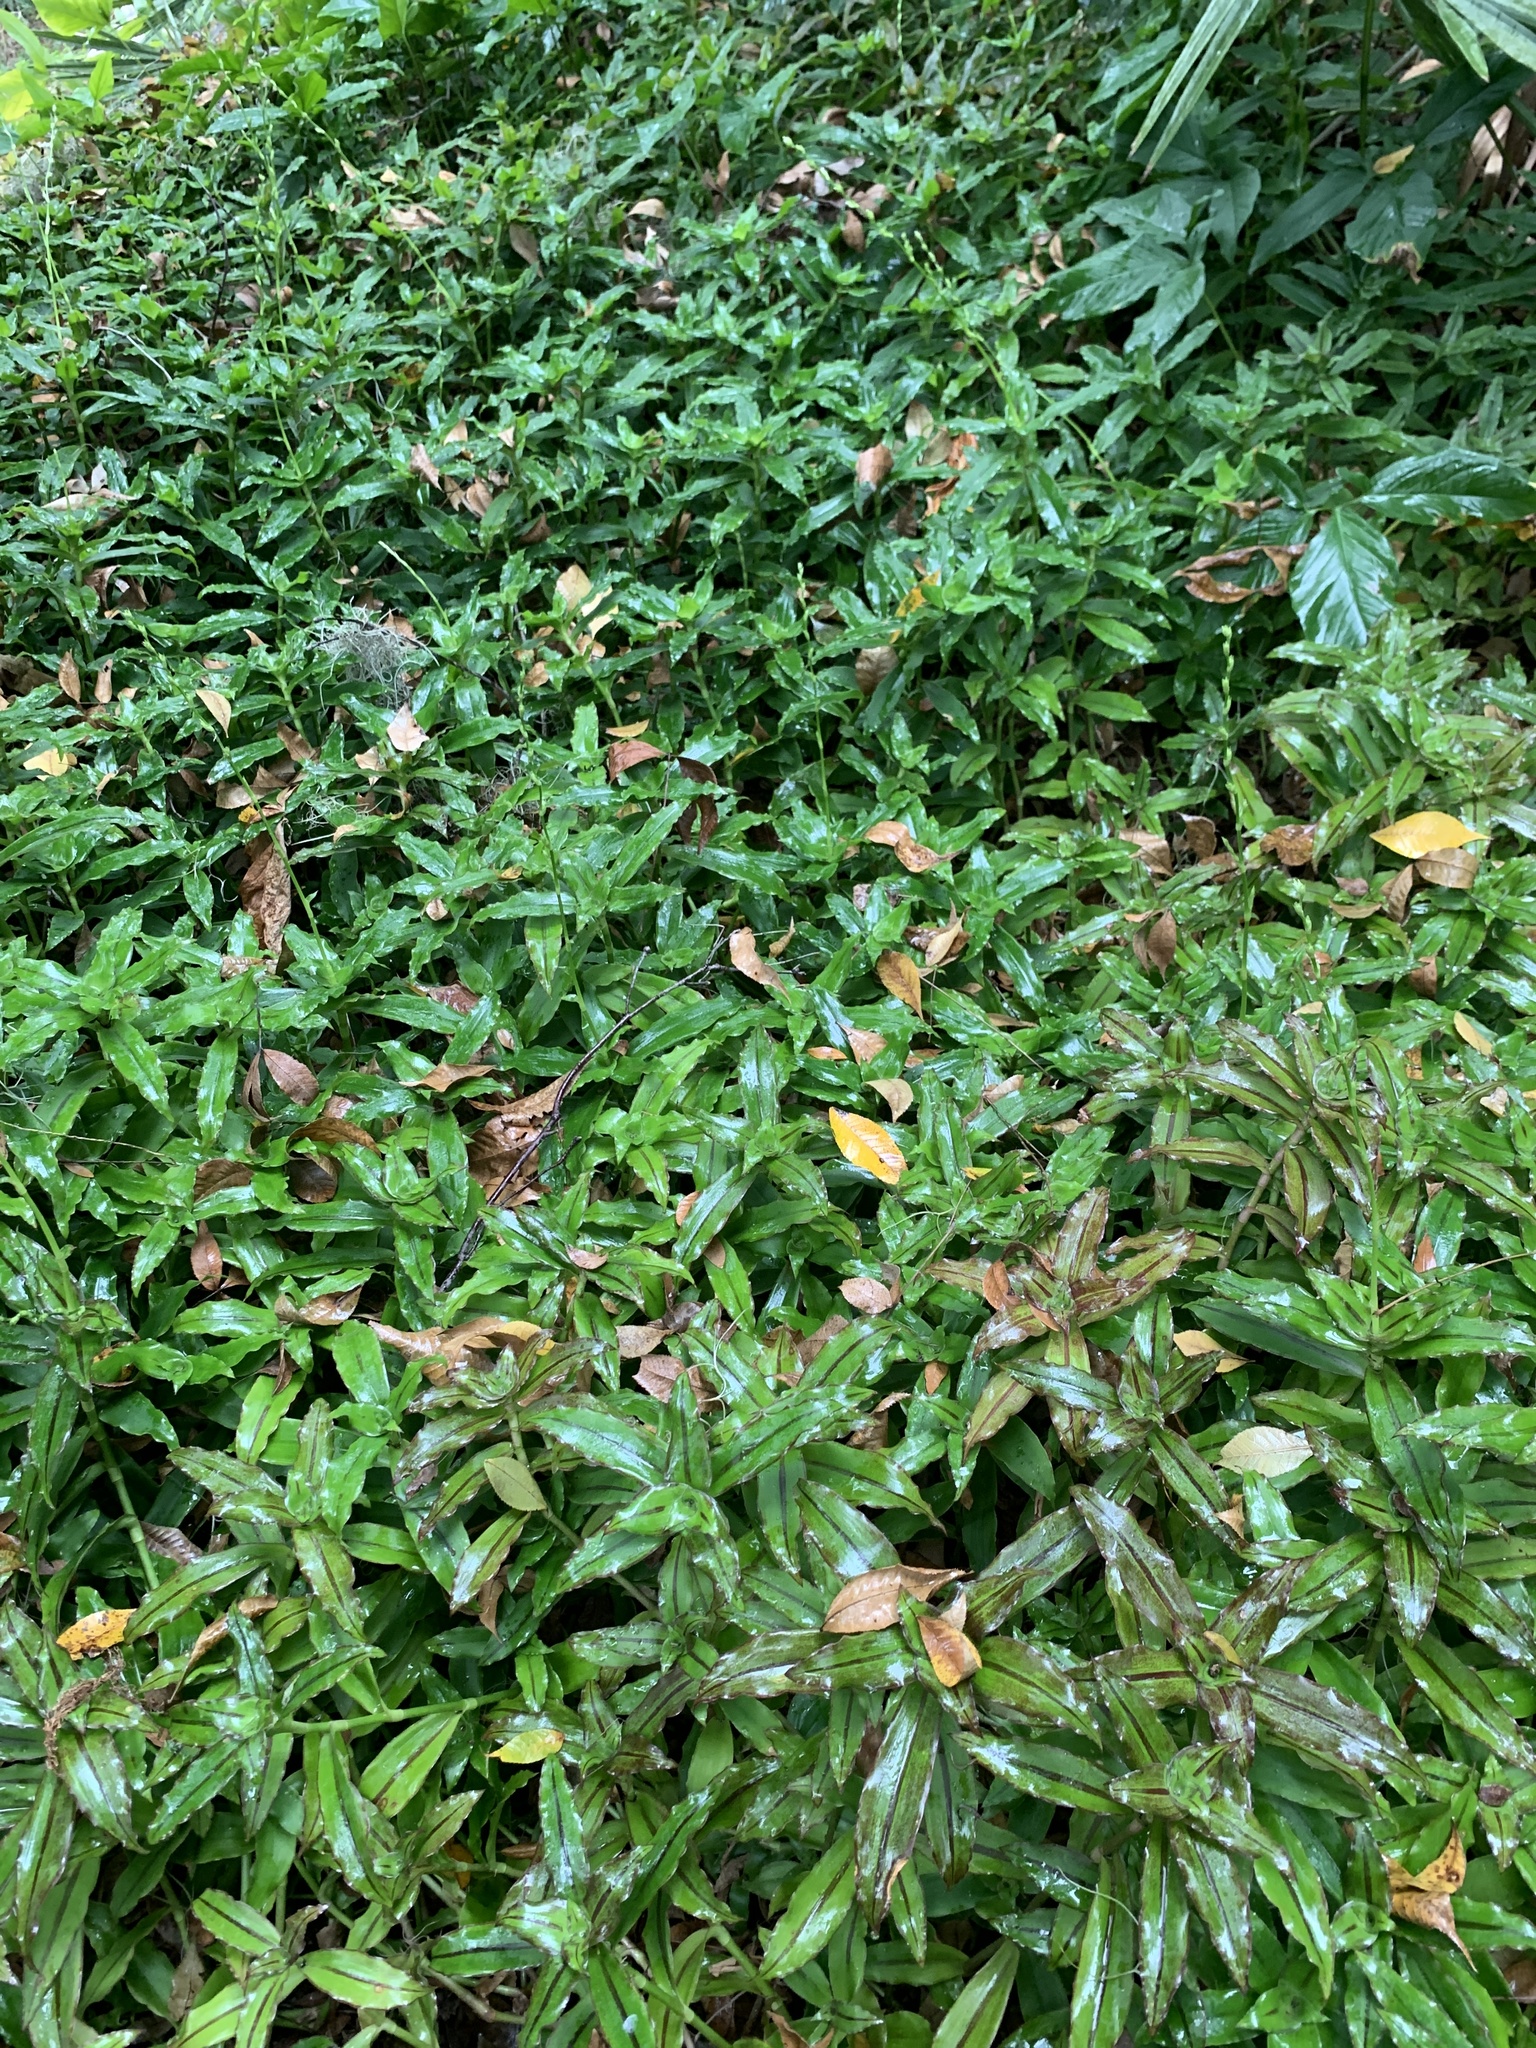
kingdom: Plantae
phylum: Tracheophyta
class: Liliopsida
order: Commelinales
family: Commelinaceae
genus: Callisia
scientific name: Callisia fragrans
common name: Basketplant
